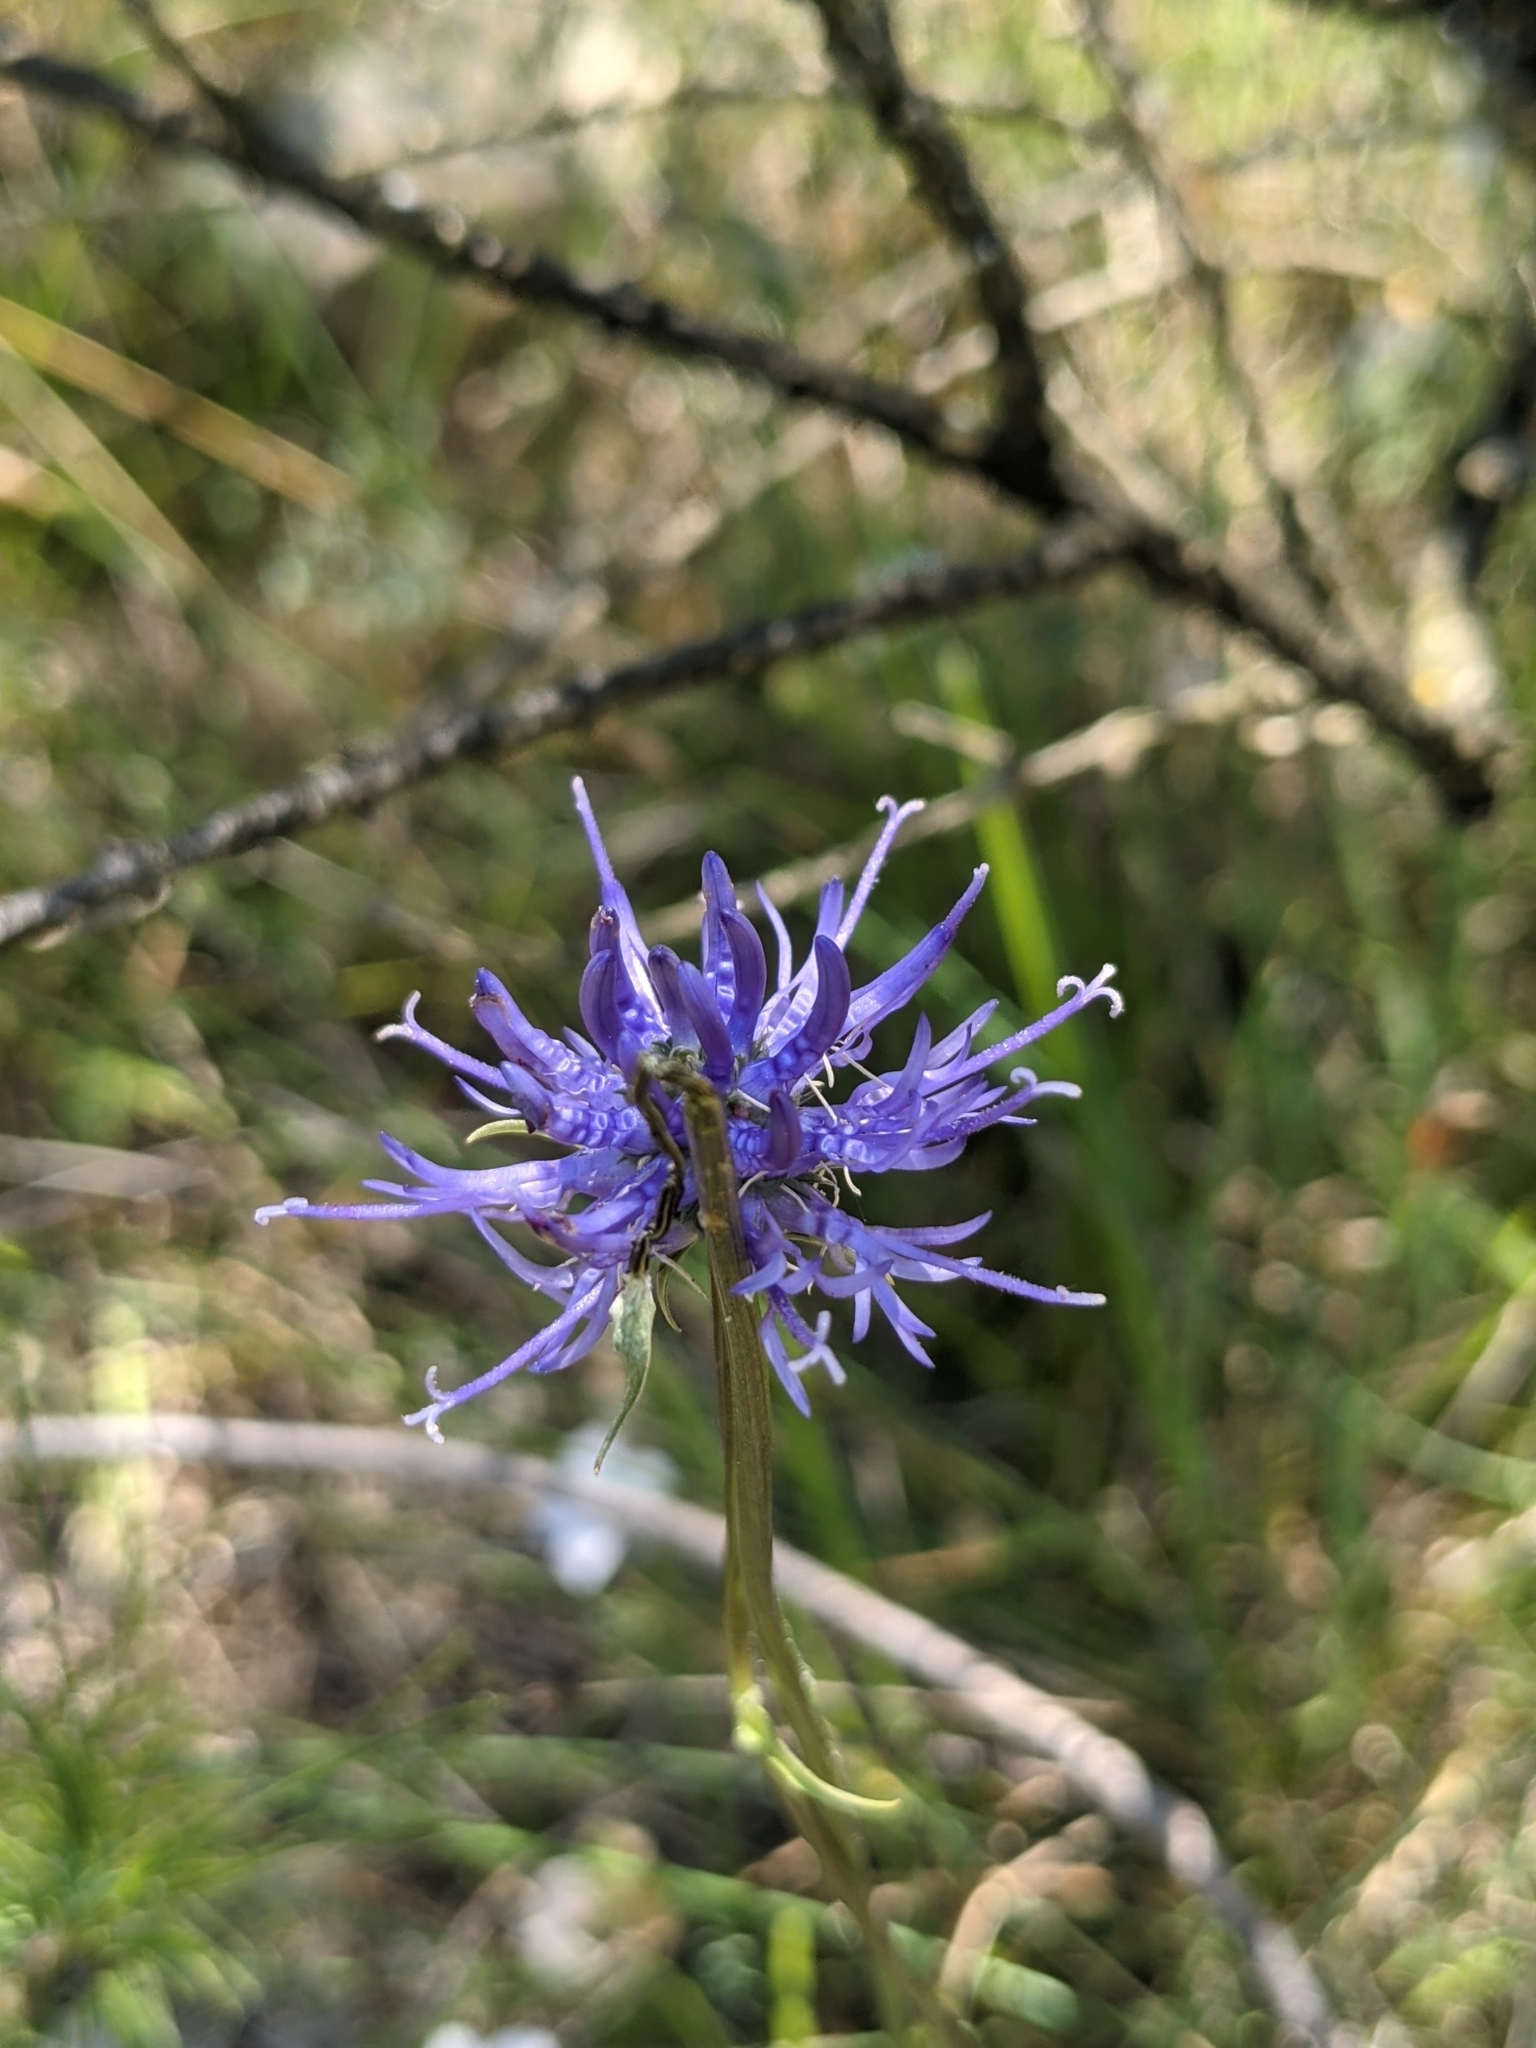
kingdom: Plantae
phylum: Tracheophyta
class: Magnoliopsida
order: Asterales
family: Campanulaceae
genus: Phyteuma
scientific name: Phyteuma orbiculare
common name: Round-headed rampion
